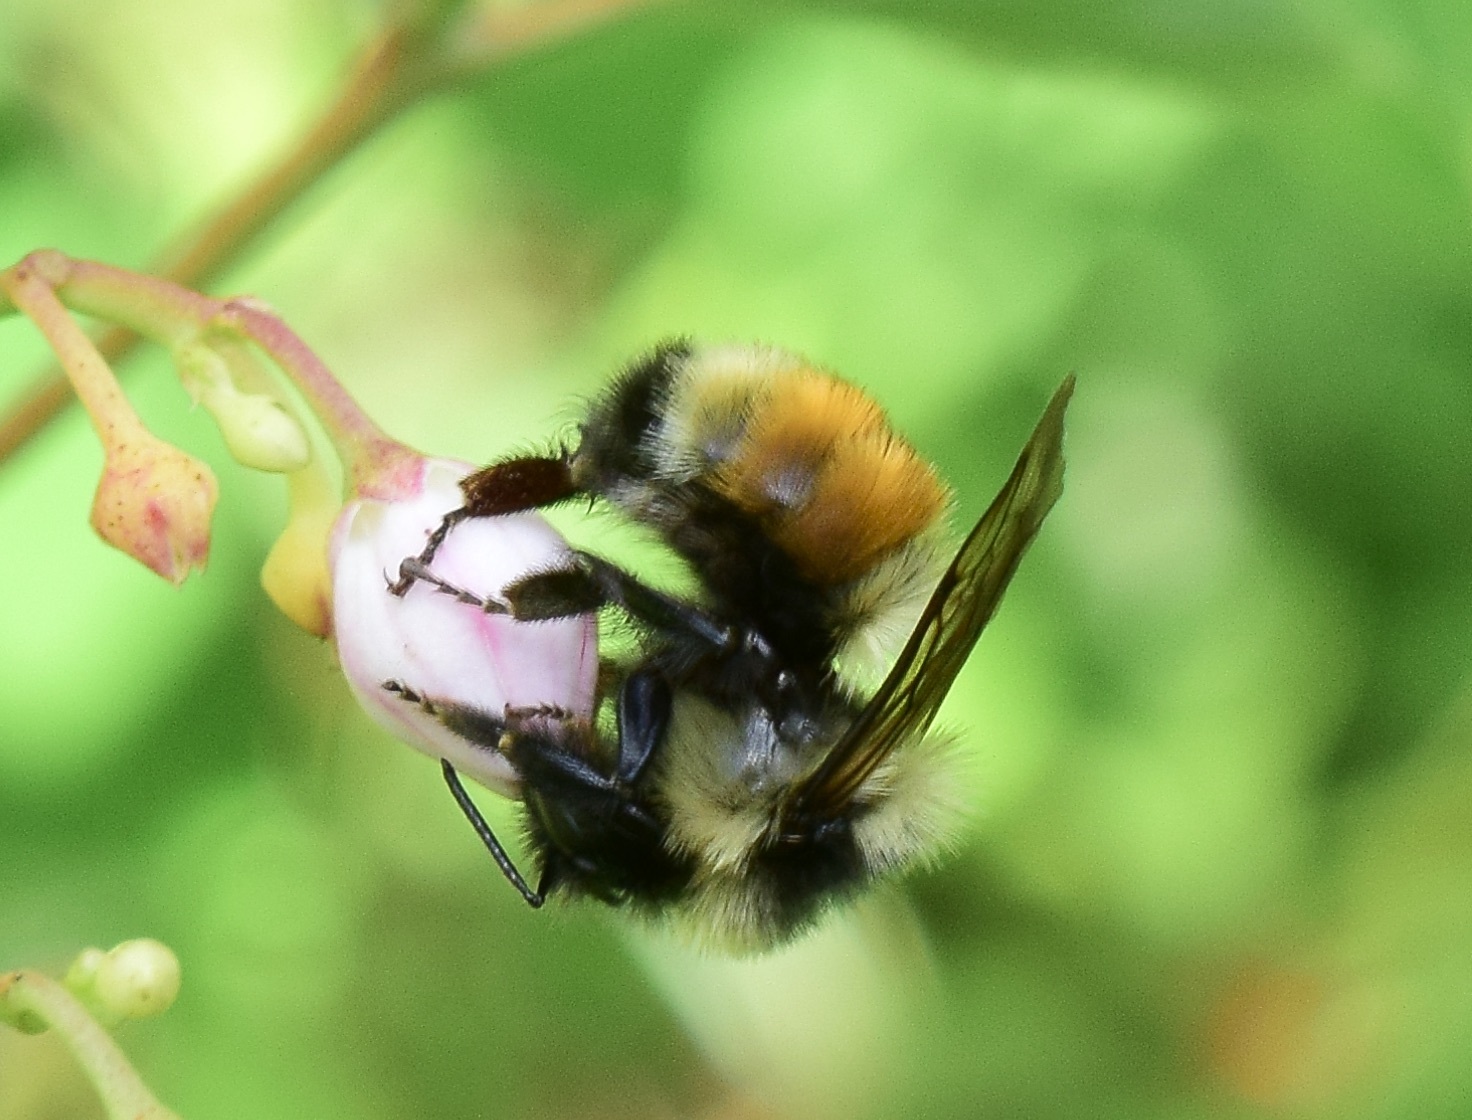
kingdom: Animalia
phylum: Arthropoda
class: Insecta
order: Hymenoptera
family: Apidae
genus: Bombus
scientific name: Bombus ternarius
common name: Tri-colored bumble bee
